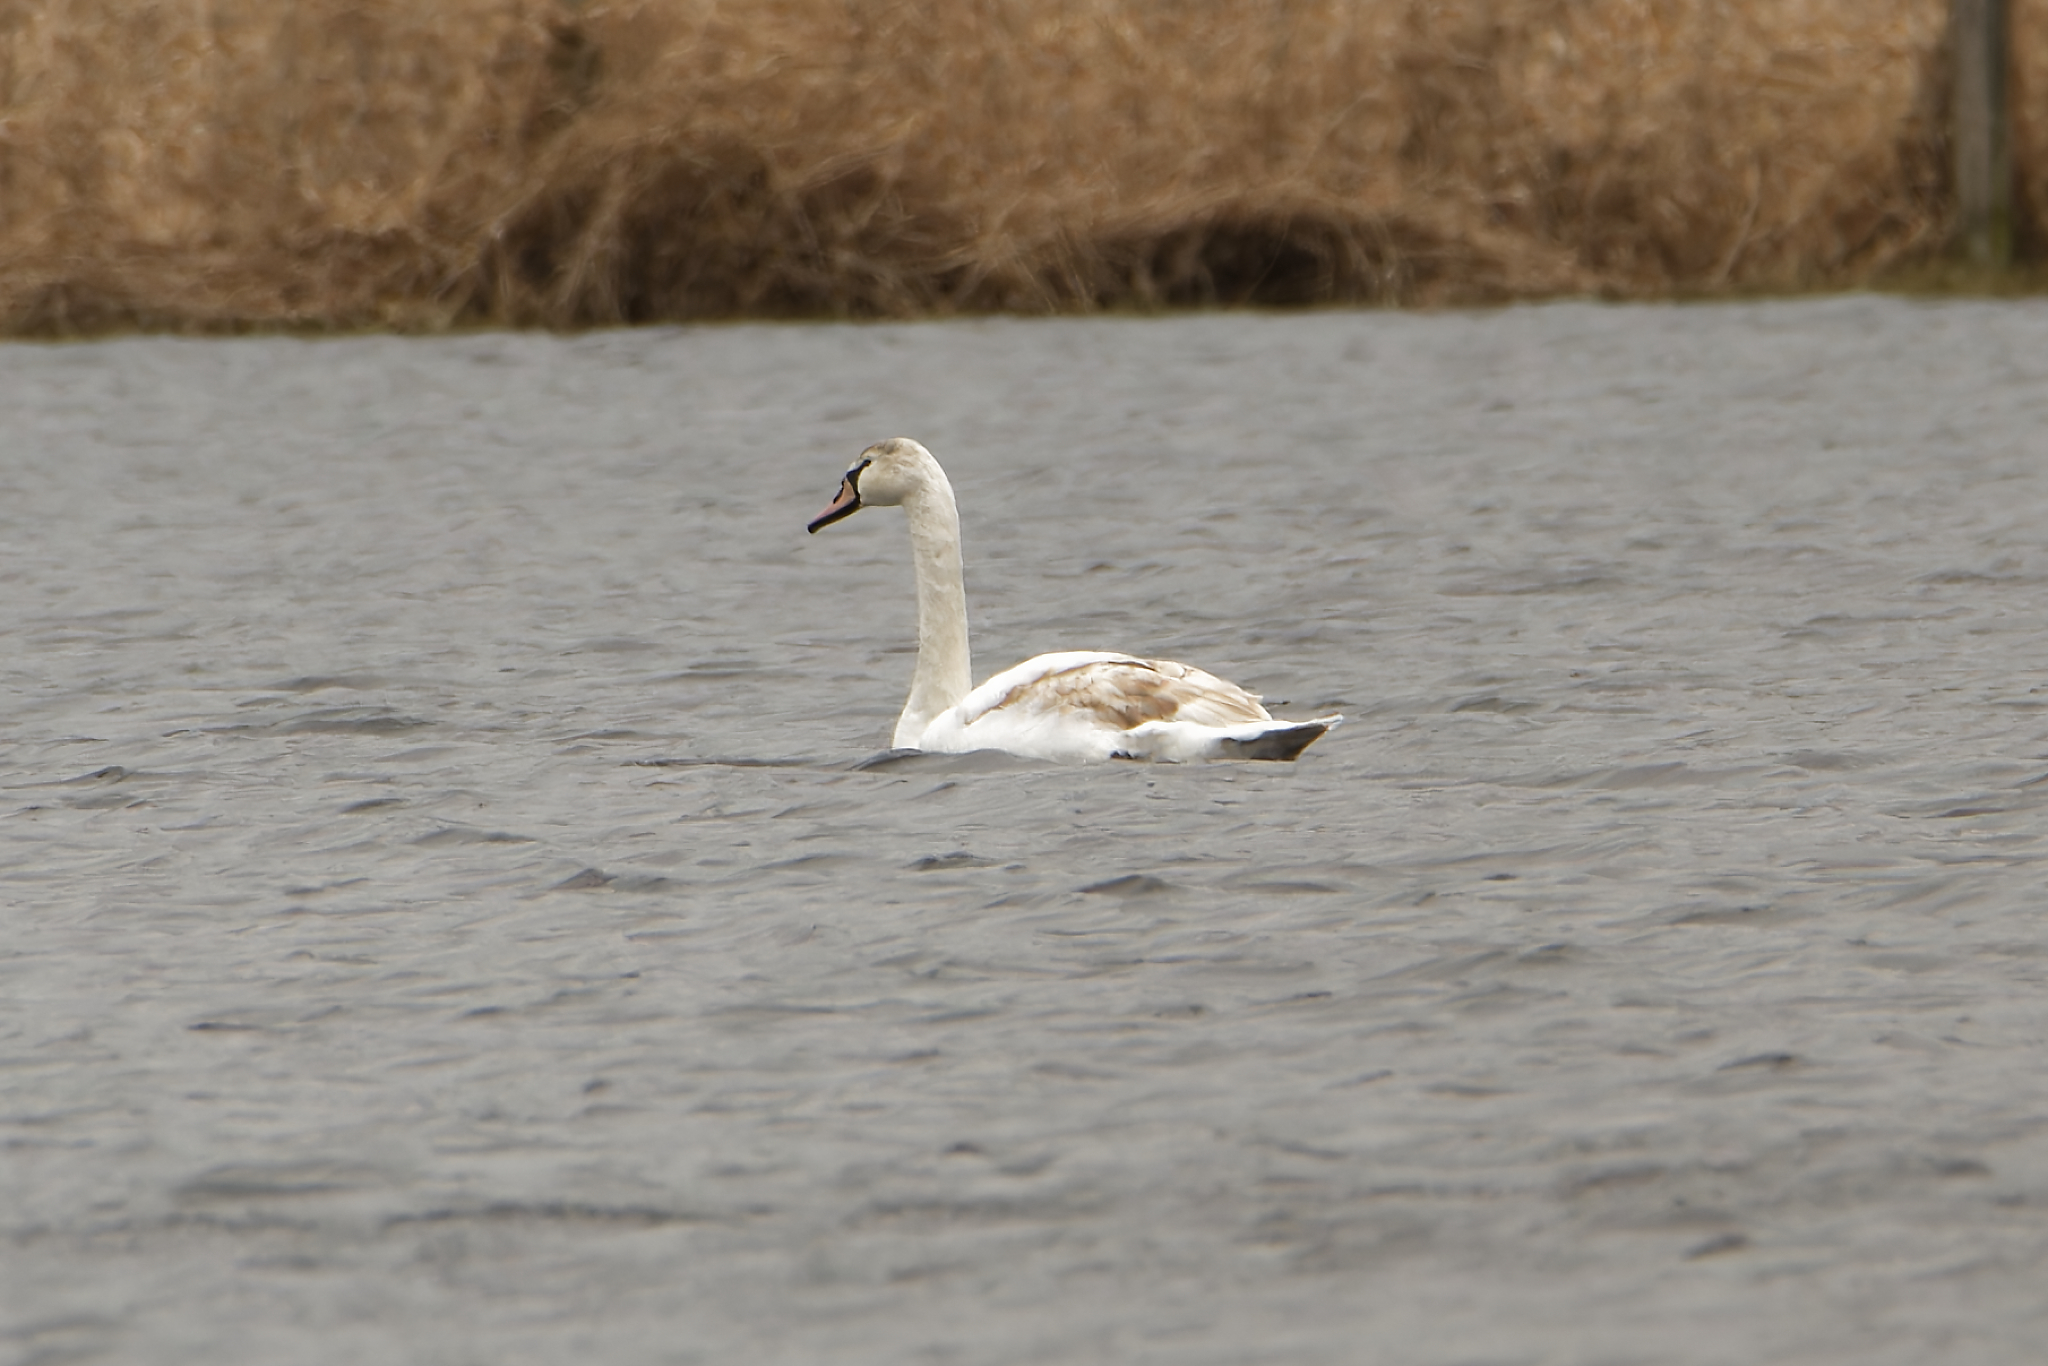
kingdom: Animalia
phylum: Chordata
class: Aves
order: Anseriformes
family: Anatidae
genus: Cygnus
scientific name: Cygnus olor
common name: Mute swan
